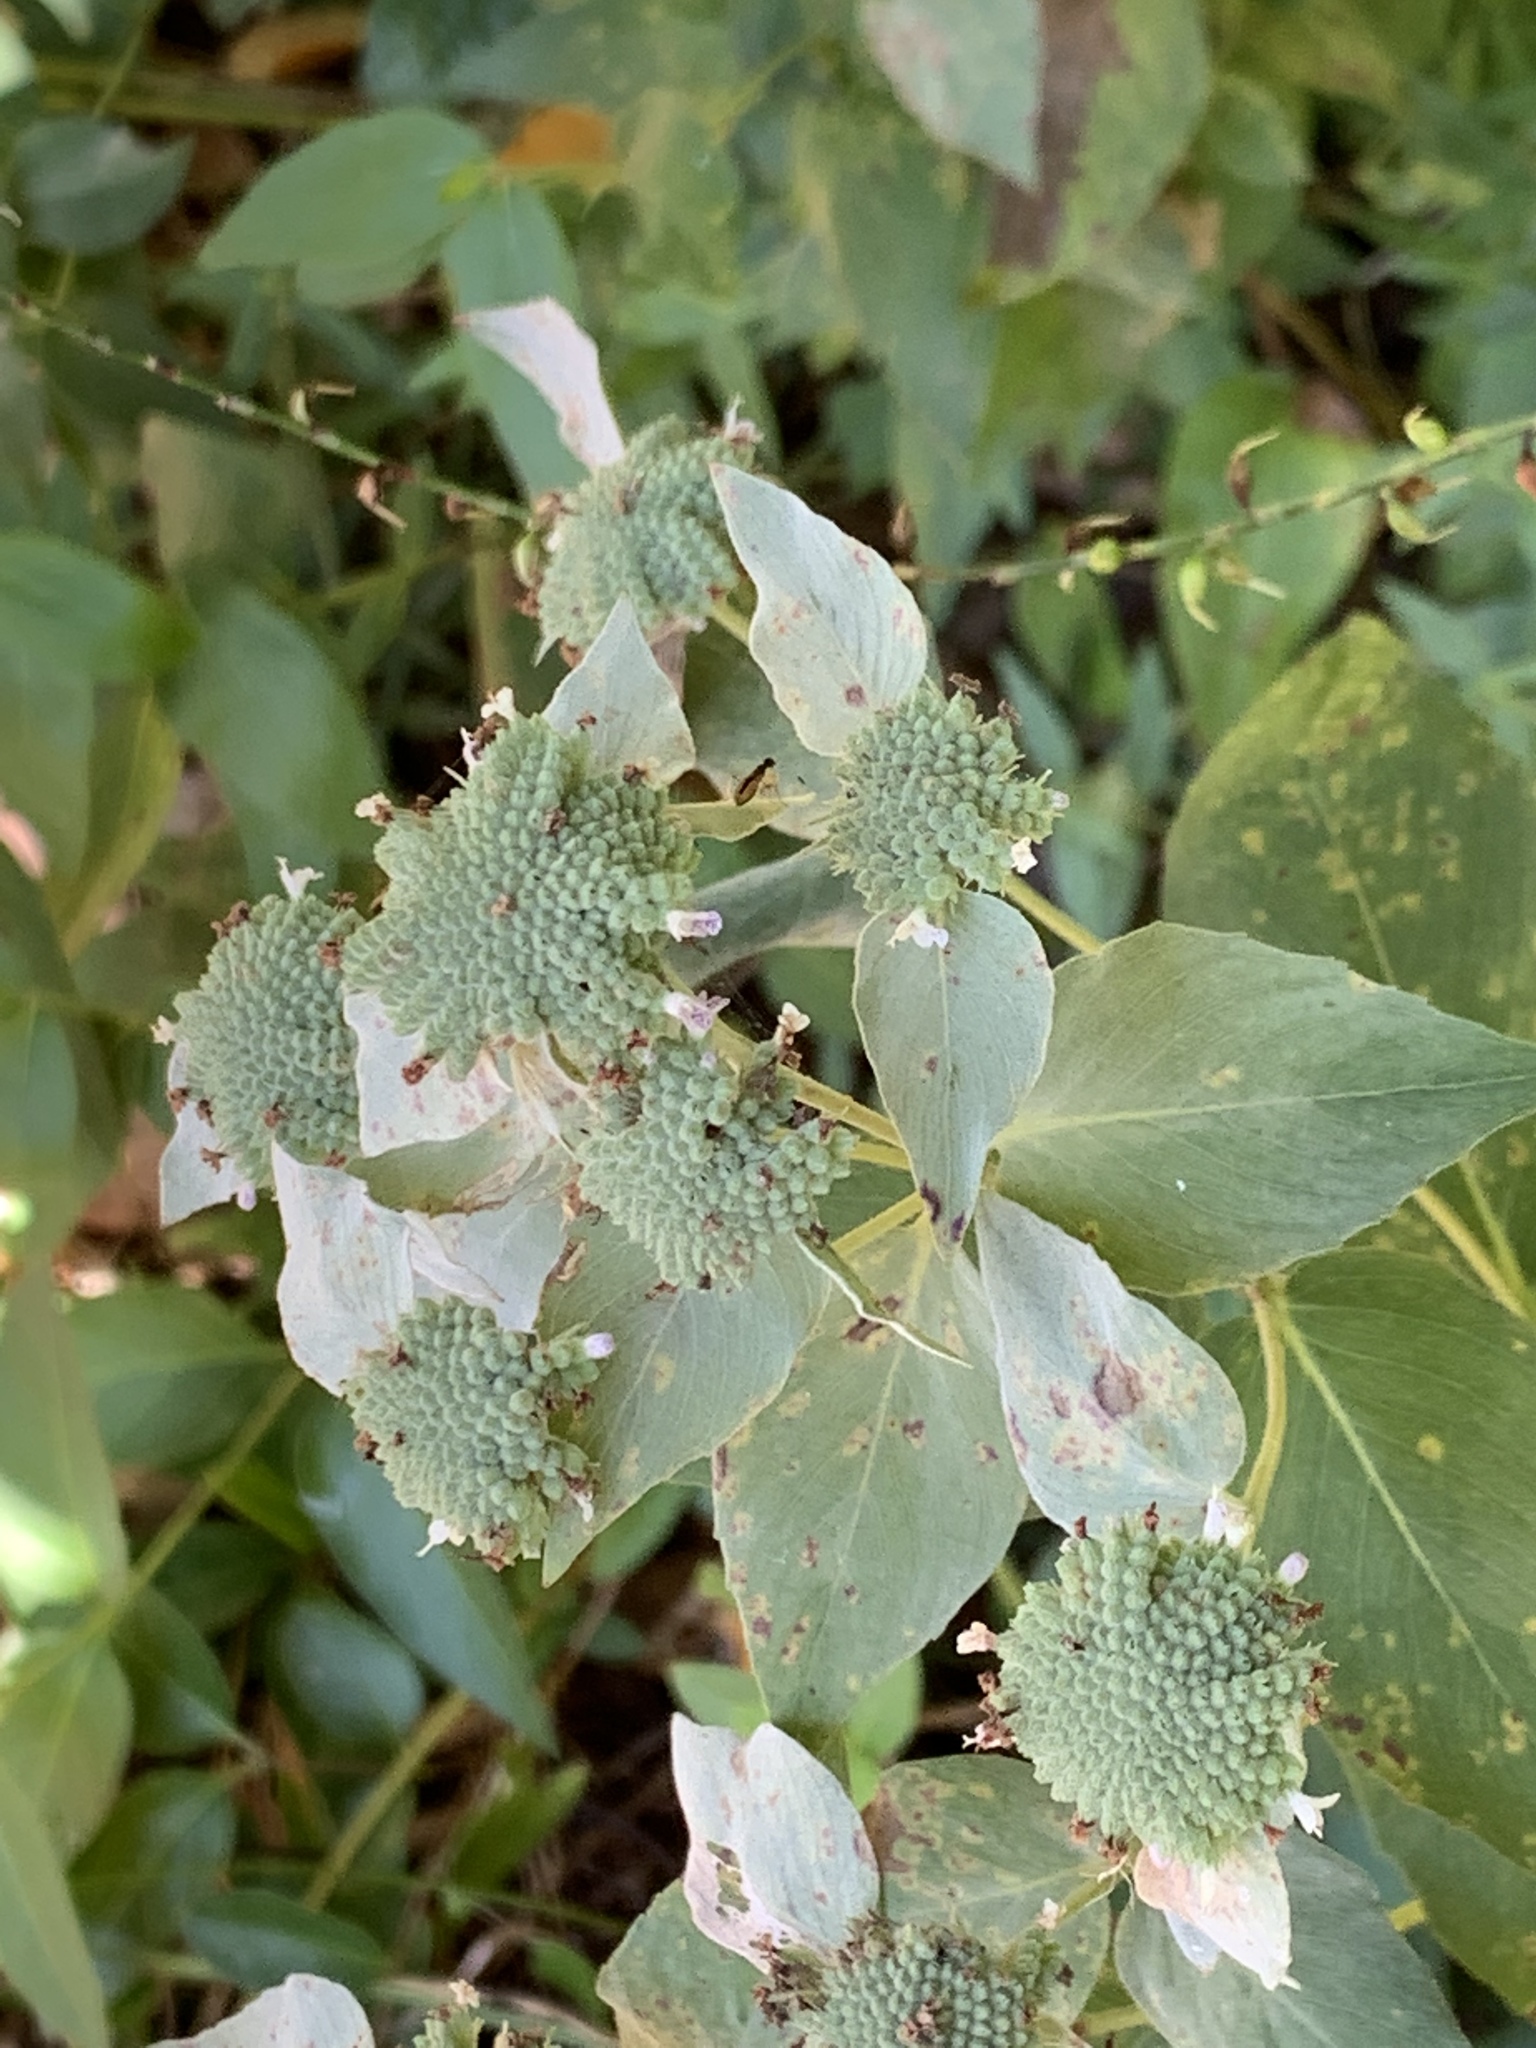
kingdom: Plantae
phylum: Tracheophyta
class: Magnoliopsida
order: Lamiales
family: Lamiaceae
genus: Pycnanthemum
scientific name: Pycnanthemum muticum
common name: Blunt mountain-mint
